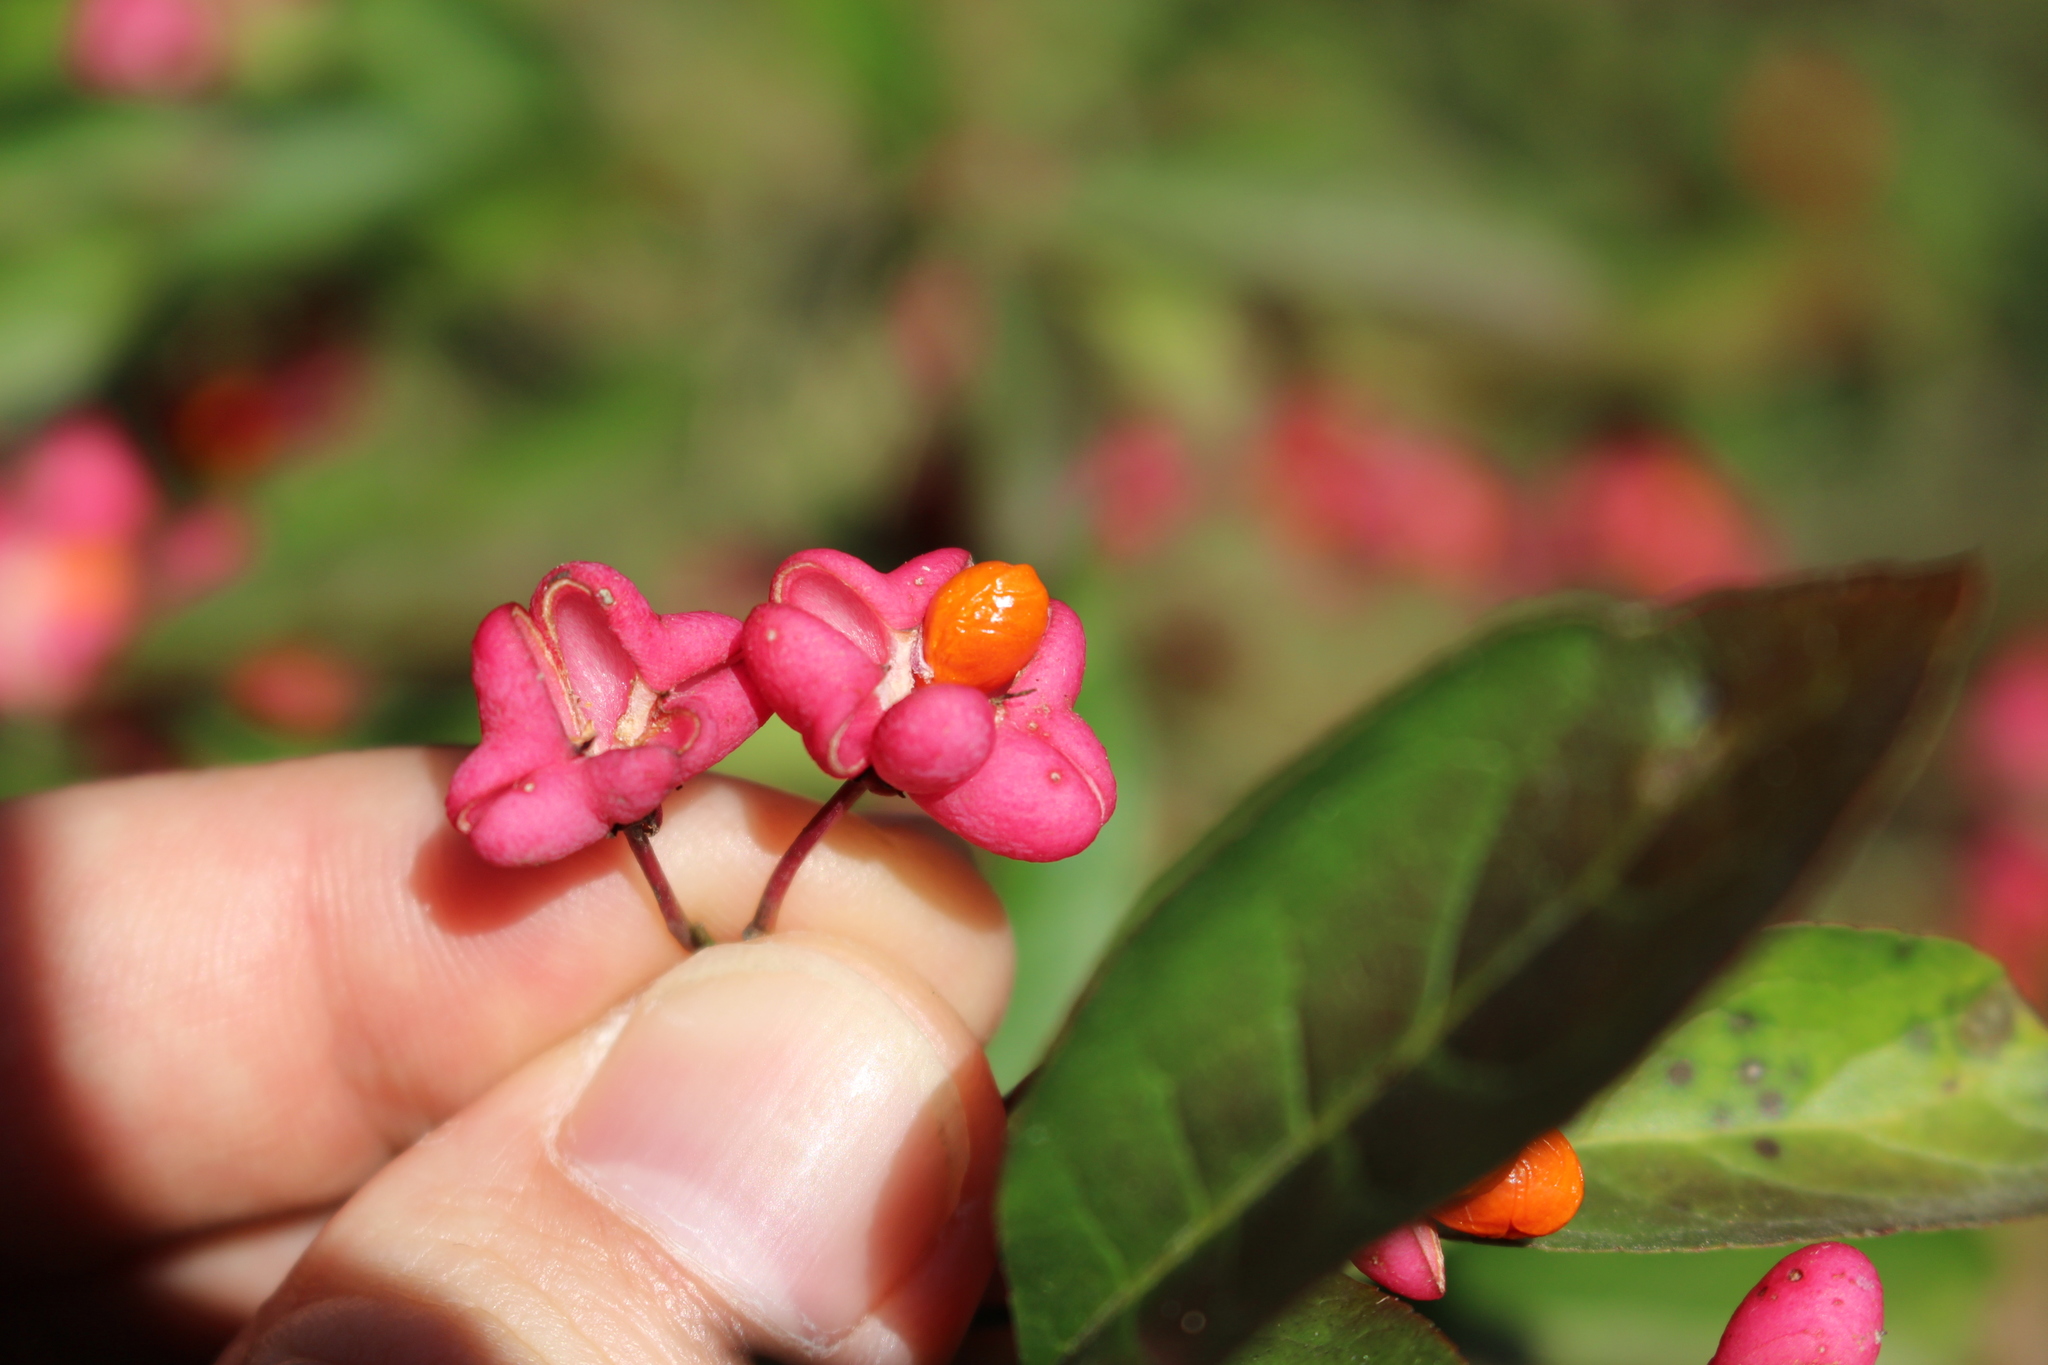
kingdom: Plantae
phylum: Tracheophyta
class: Magnoliopsida
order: Celastrales
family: Celastraceae
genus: Euonymus
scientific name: Euonymus europaeus
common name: Spindle
